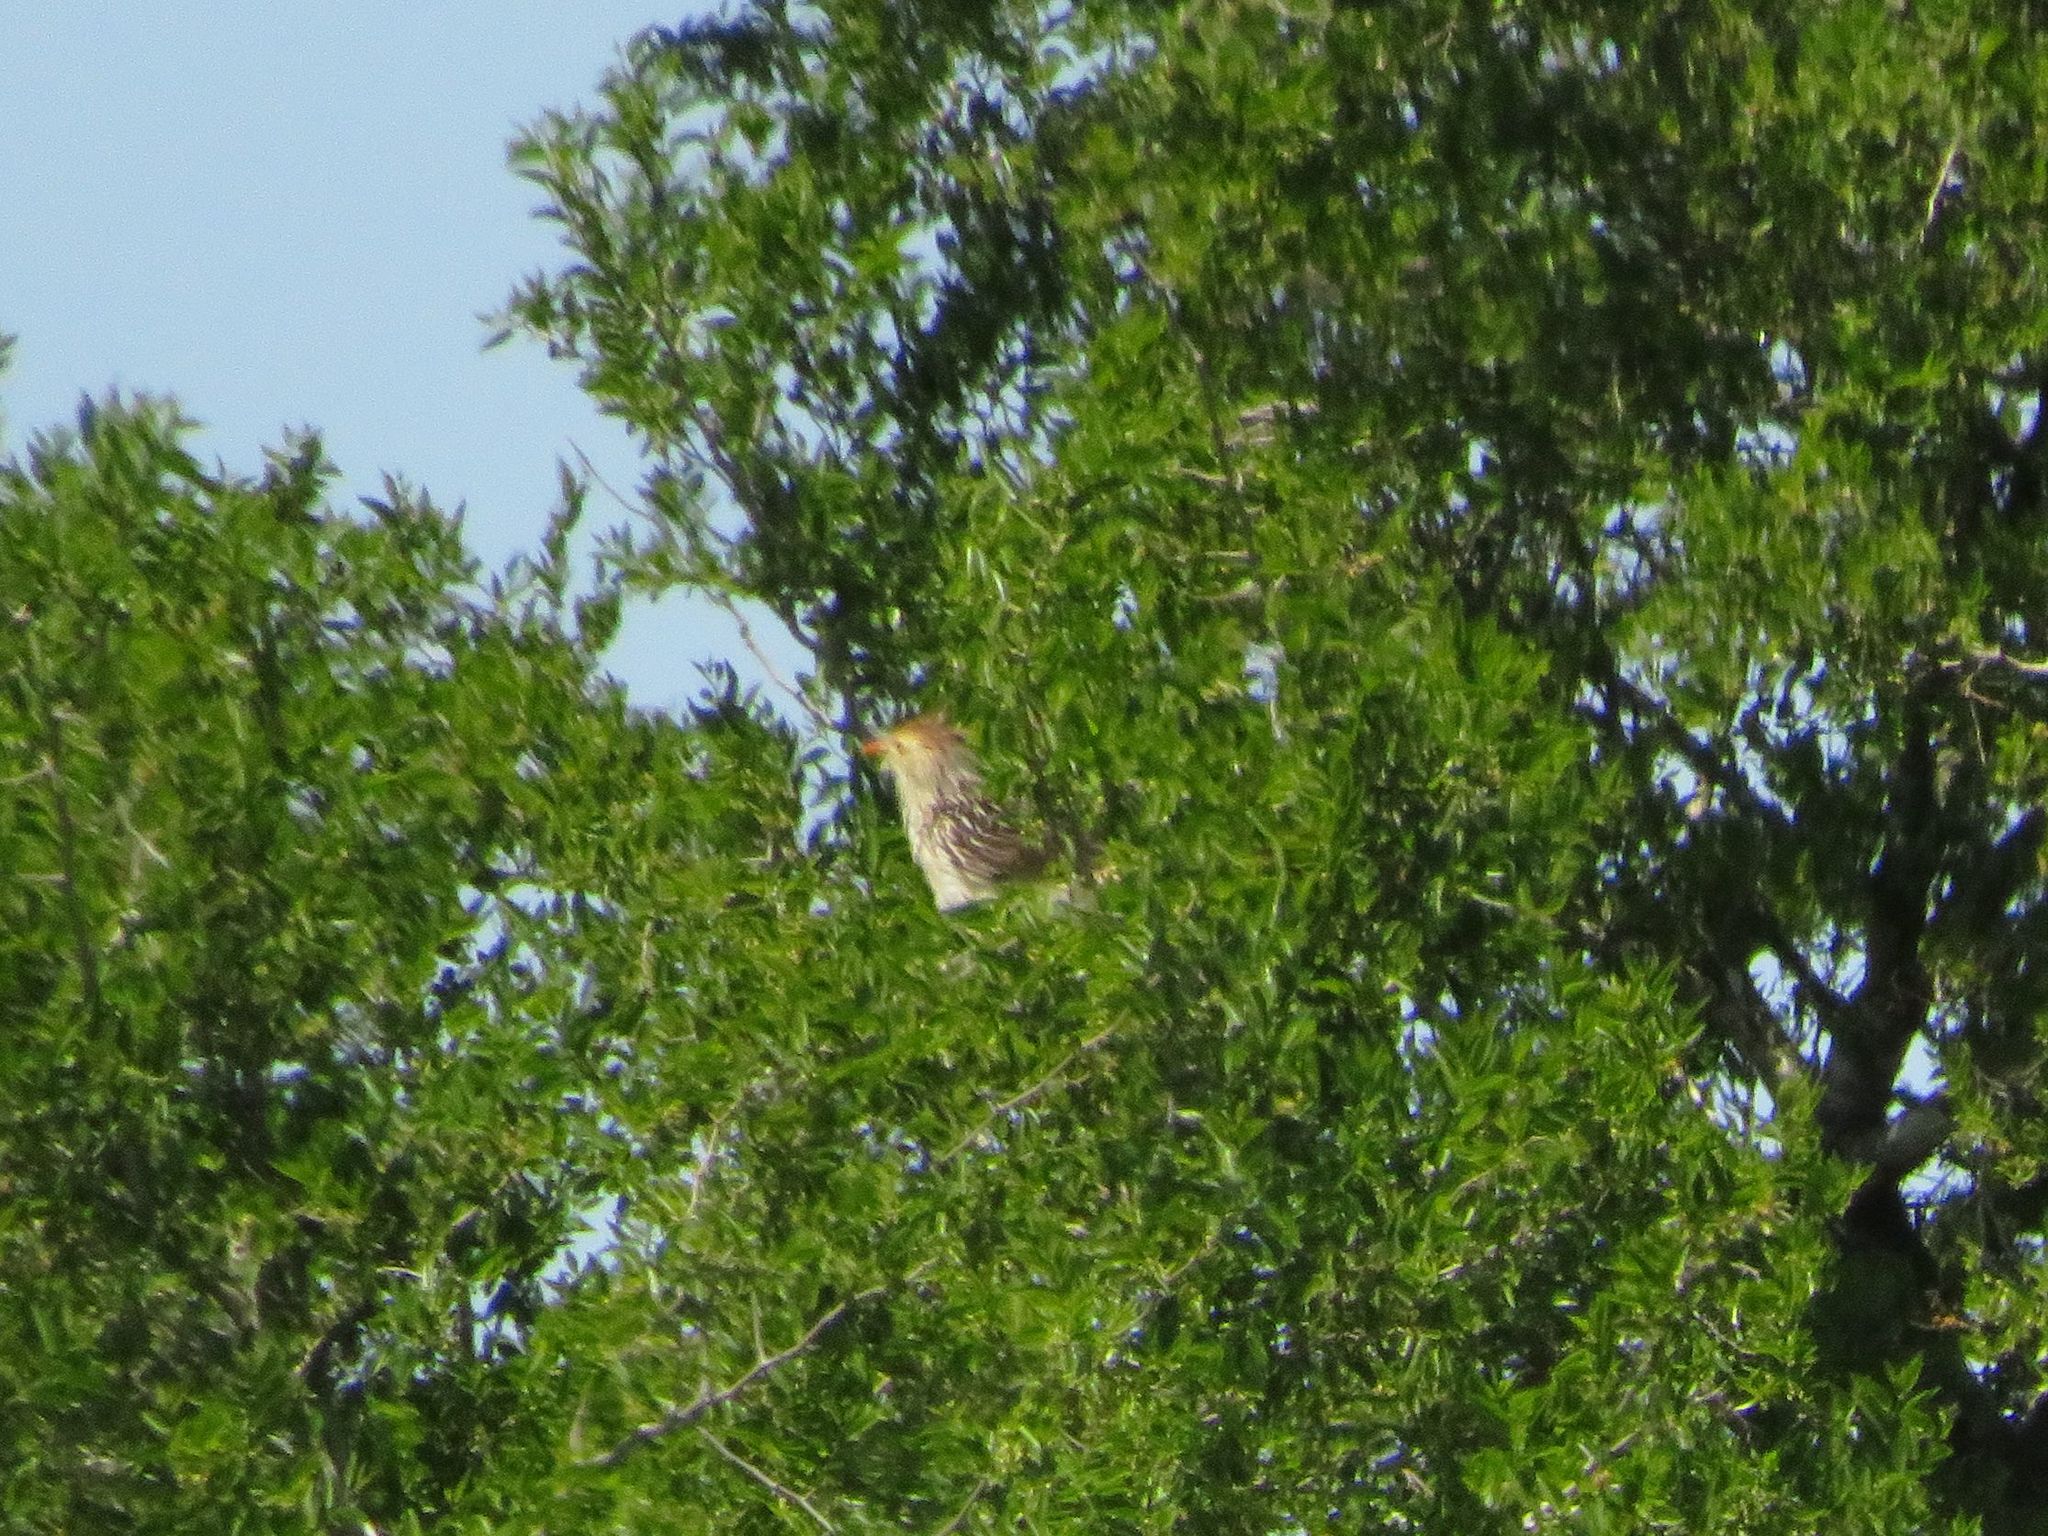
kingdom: Animalia
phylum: Chordata
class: Aves
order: Cuculiformes
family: Cuculidae
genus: Guira
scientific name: Guira guira
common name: Guira cuckoo
